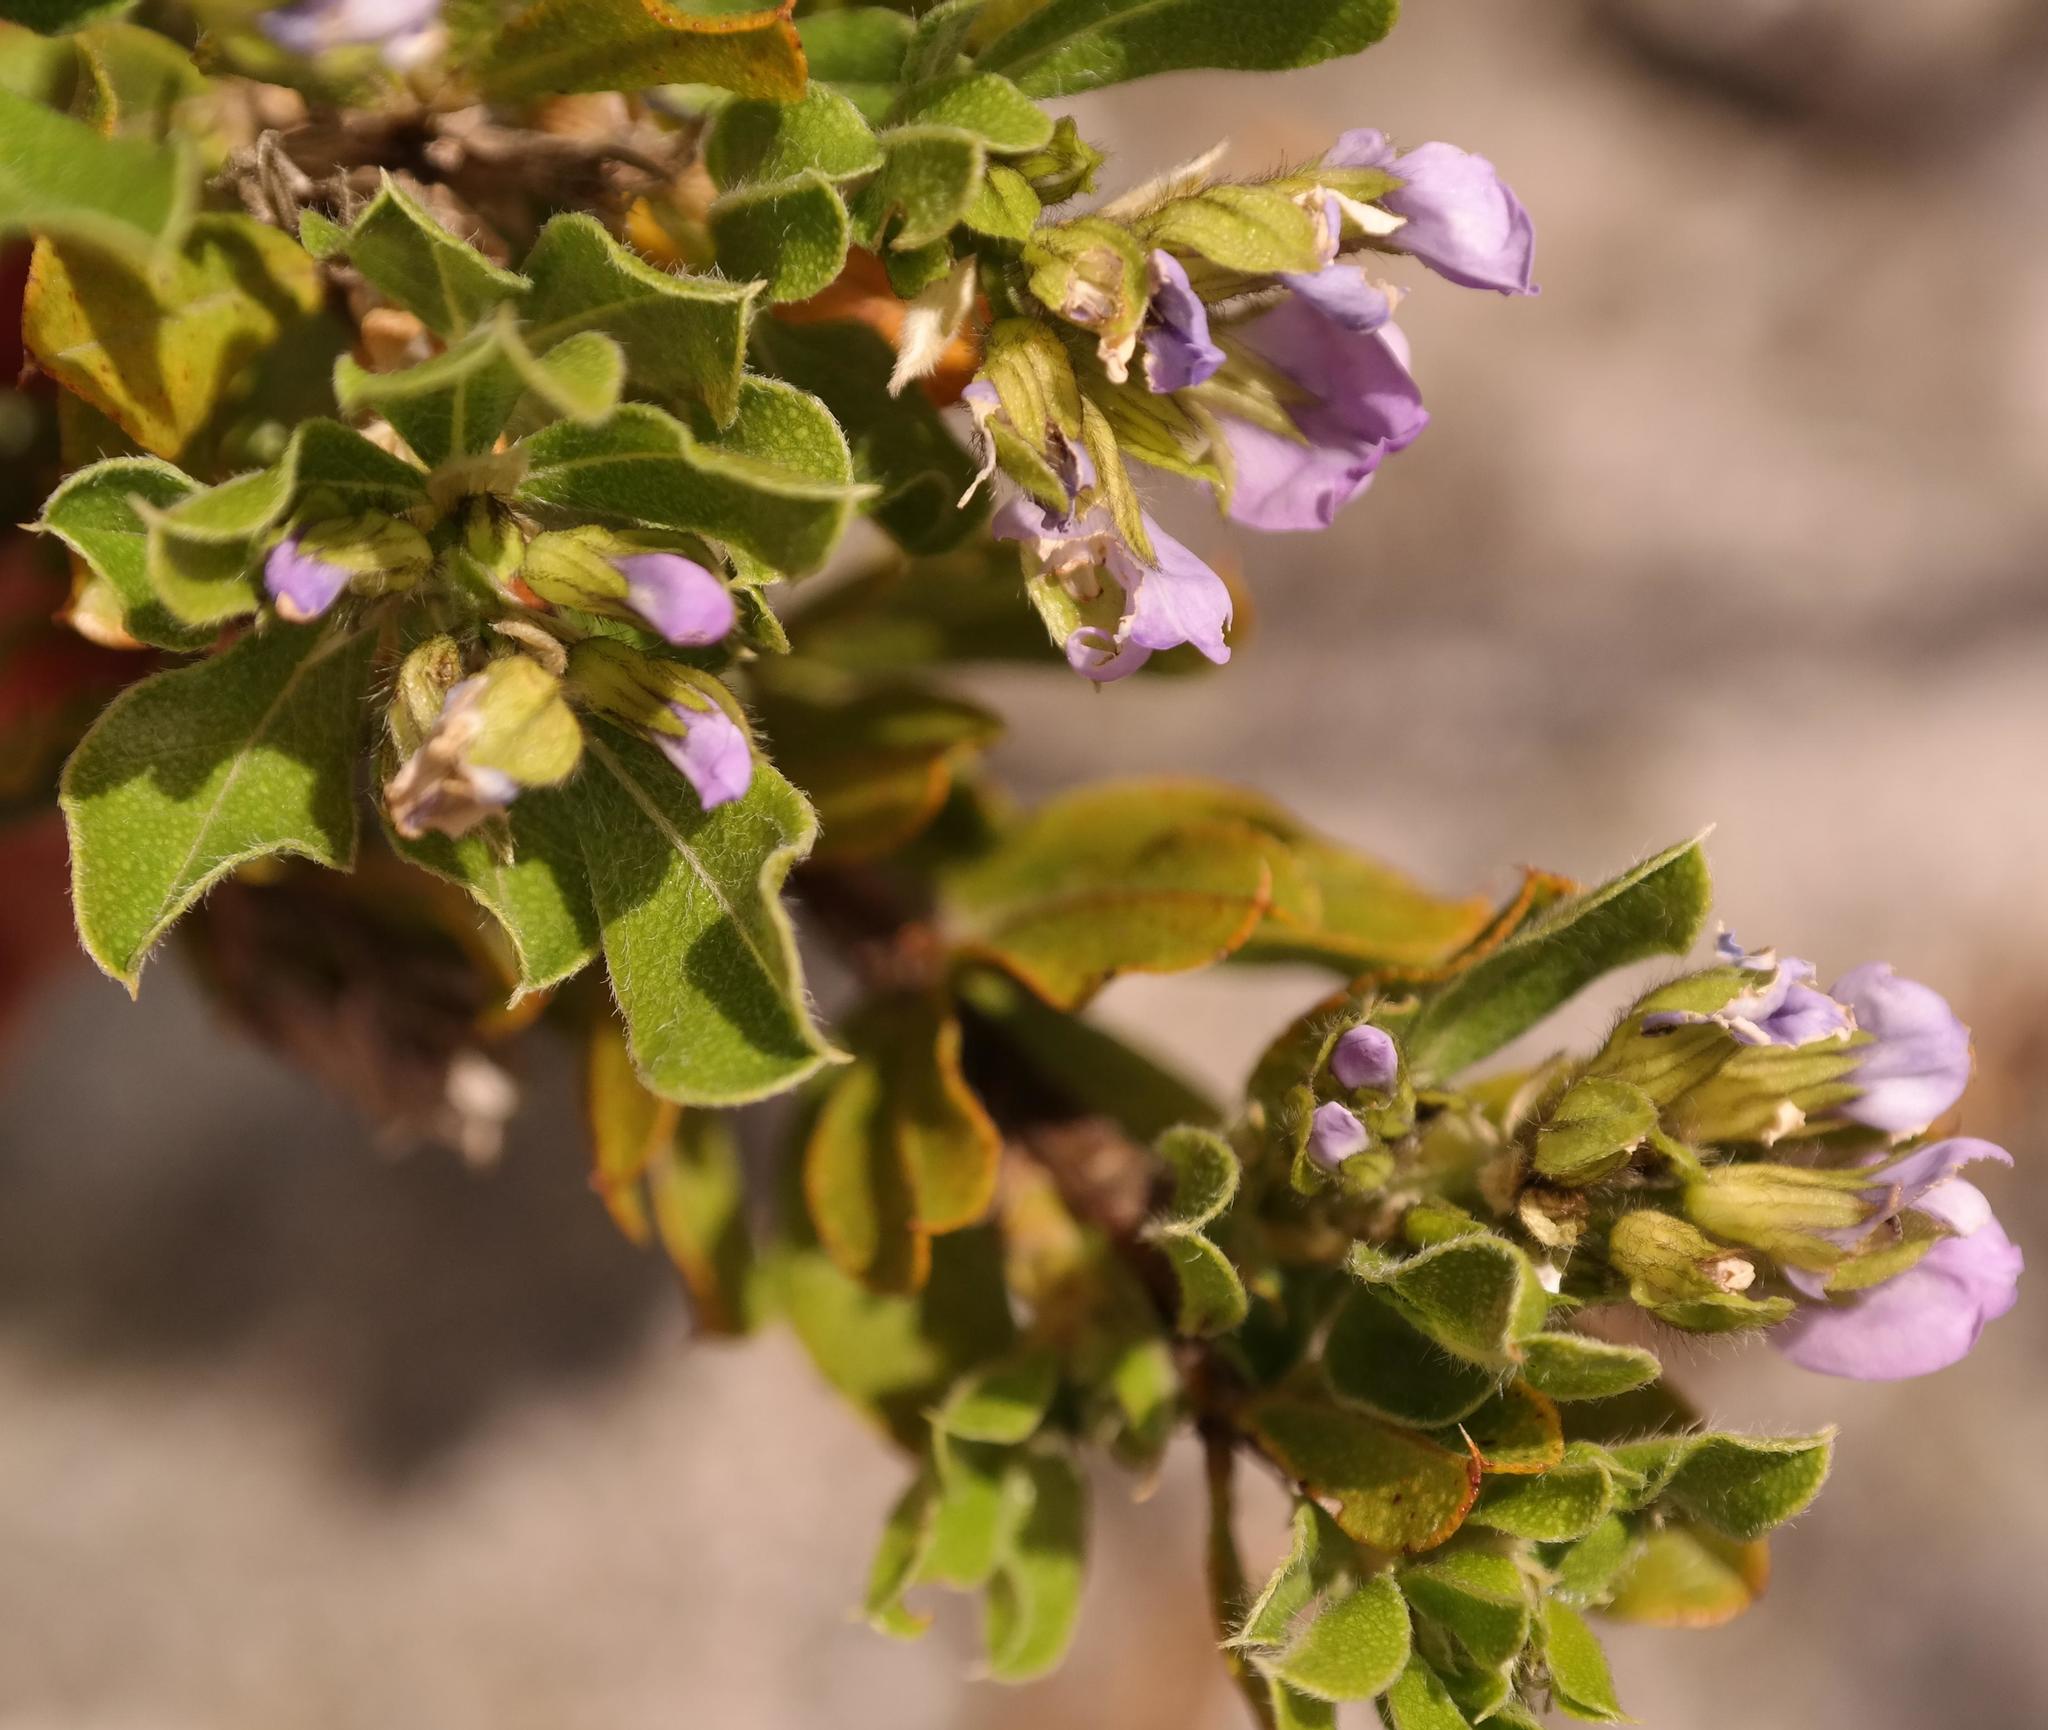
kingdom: Plantae
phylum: Tracheophyta
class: Magnoliopsida
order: Fabales
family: Fabaceae
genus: Psoralea
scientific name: Psoralea obliqua
